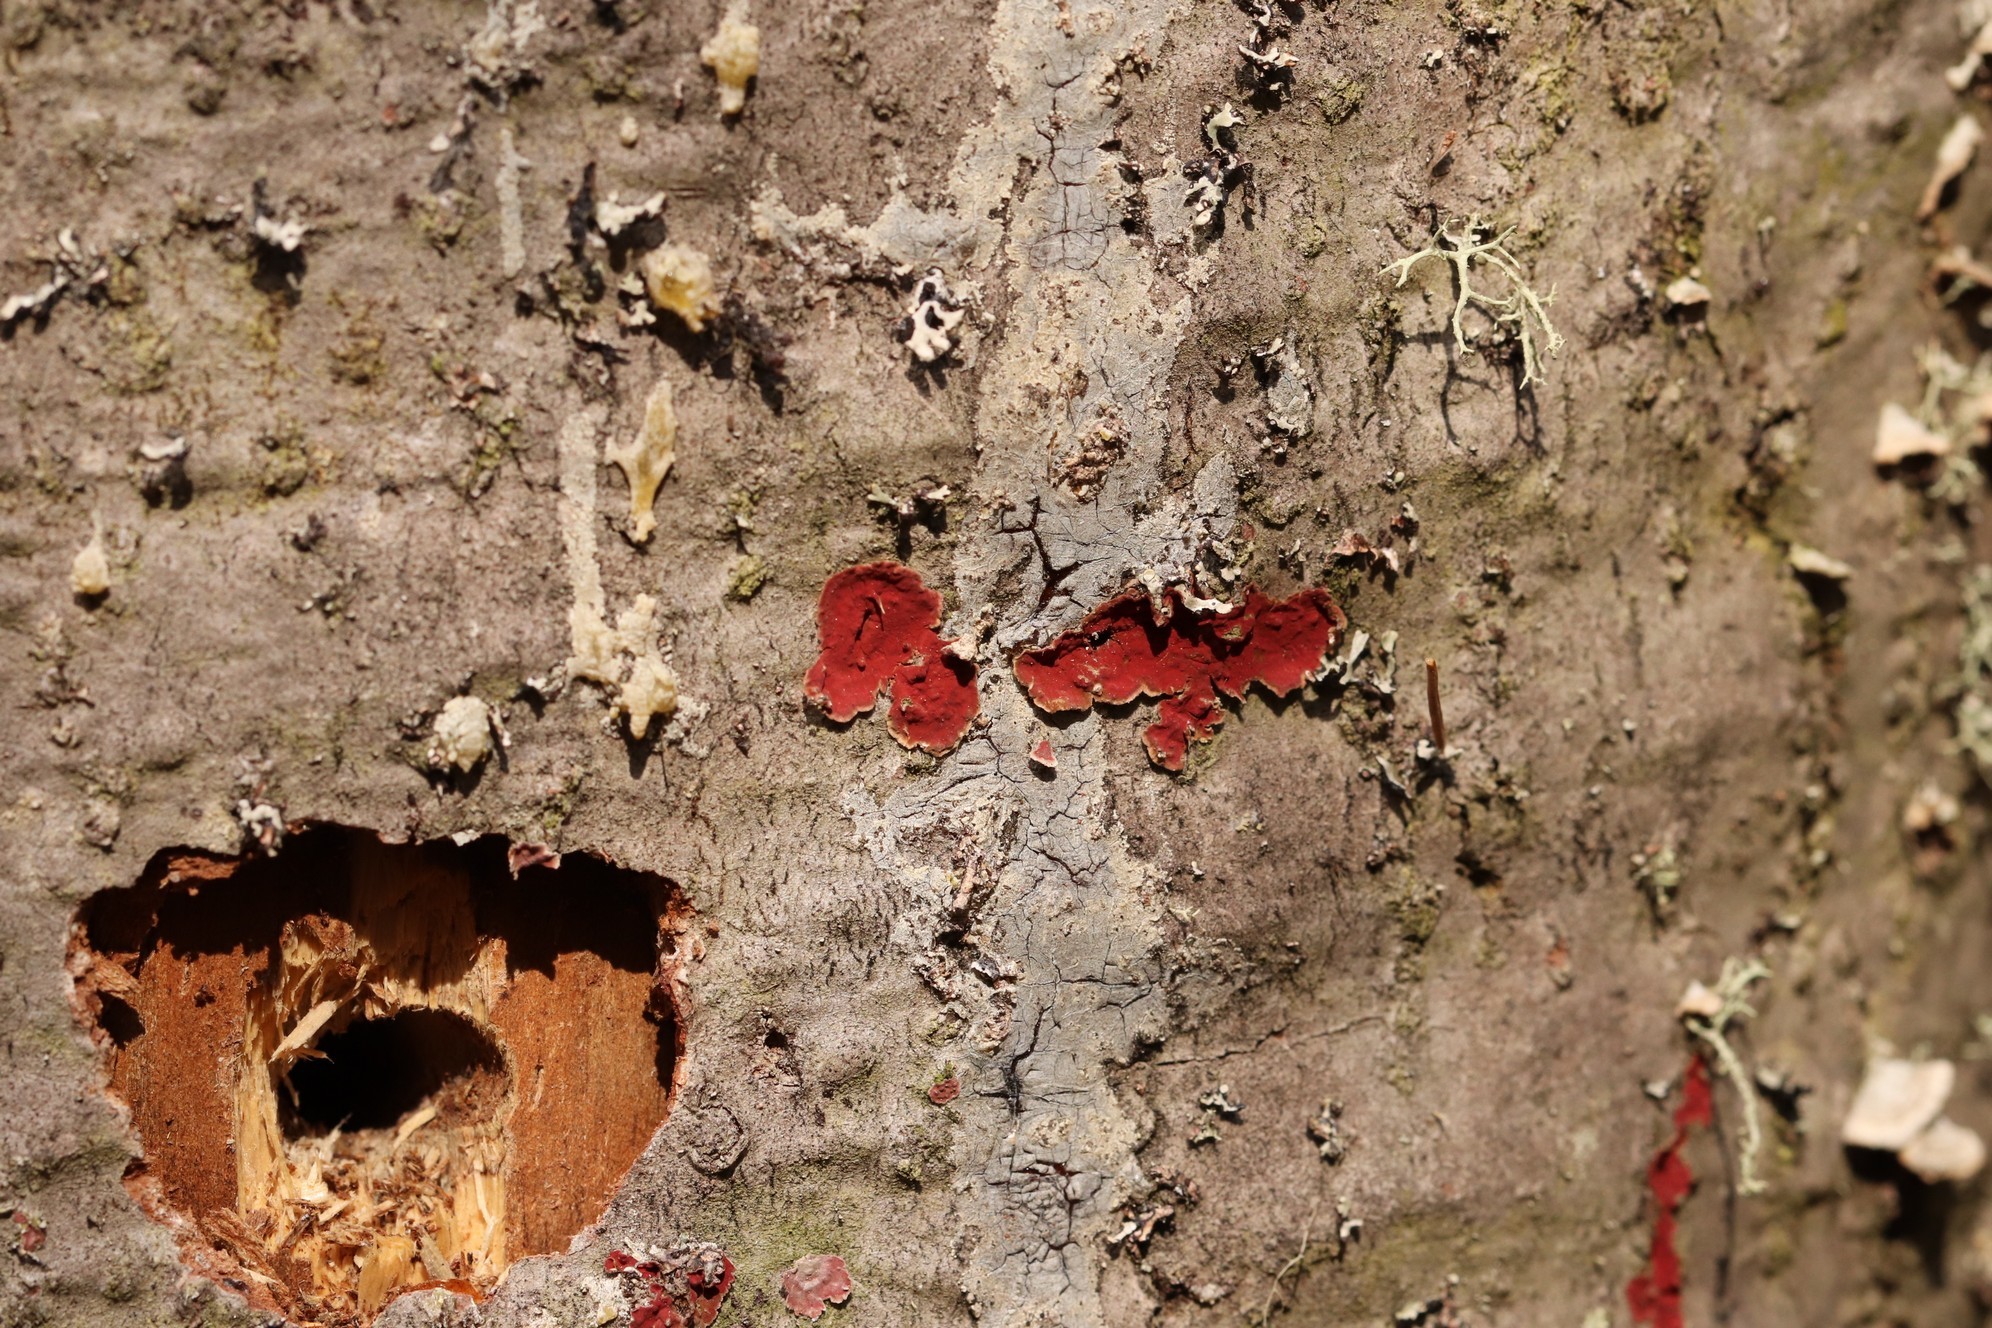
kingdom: Fungi
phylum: Basidiomycota
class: Agaricomycetes
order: Hymenochaetales
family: Hymenochaetaceae
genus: Hymenochaete
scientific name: Hymenochaete cruenta
